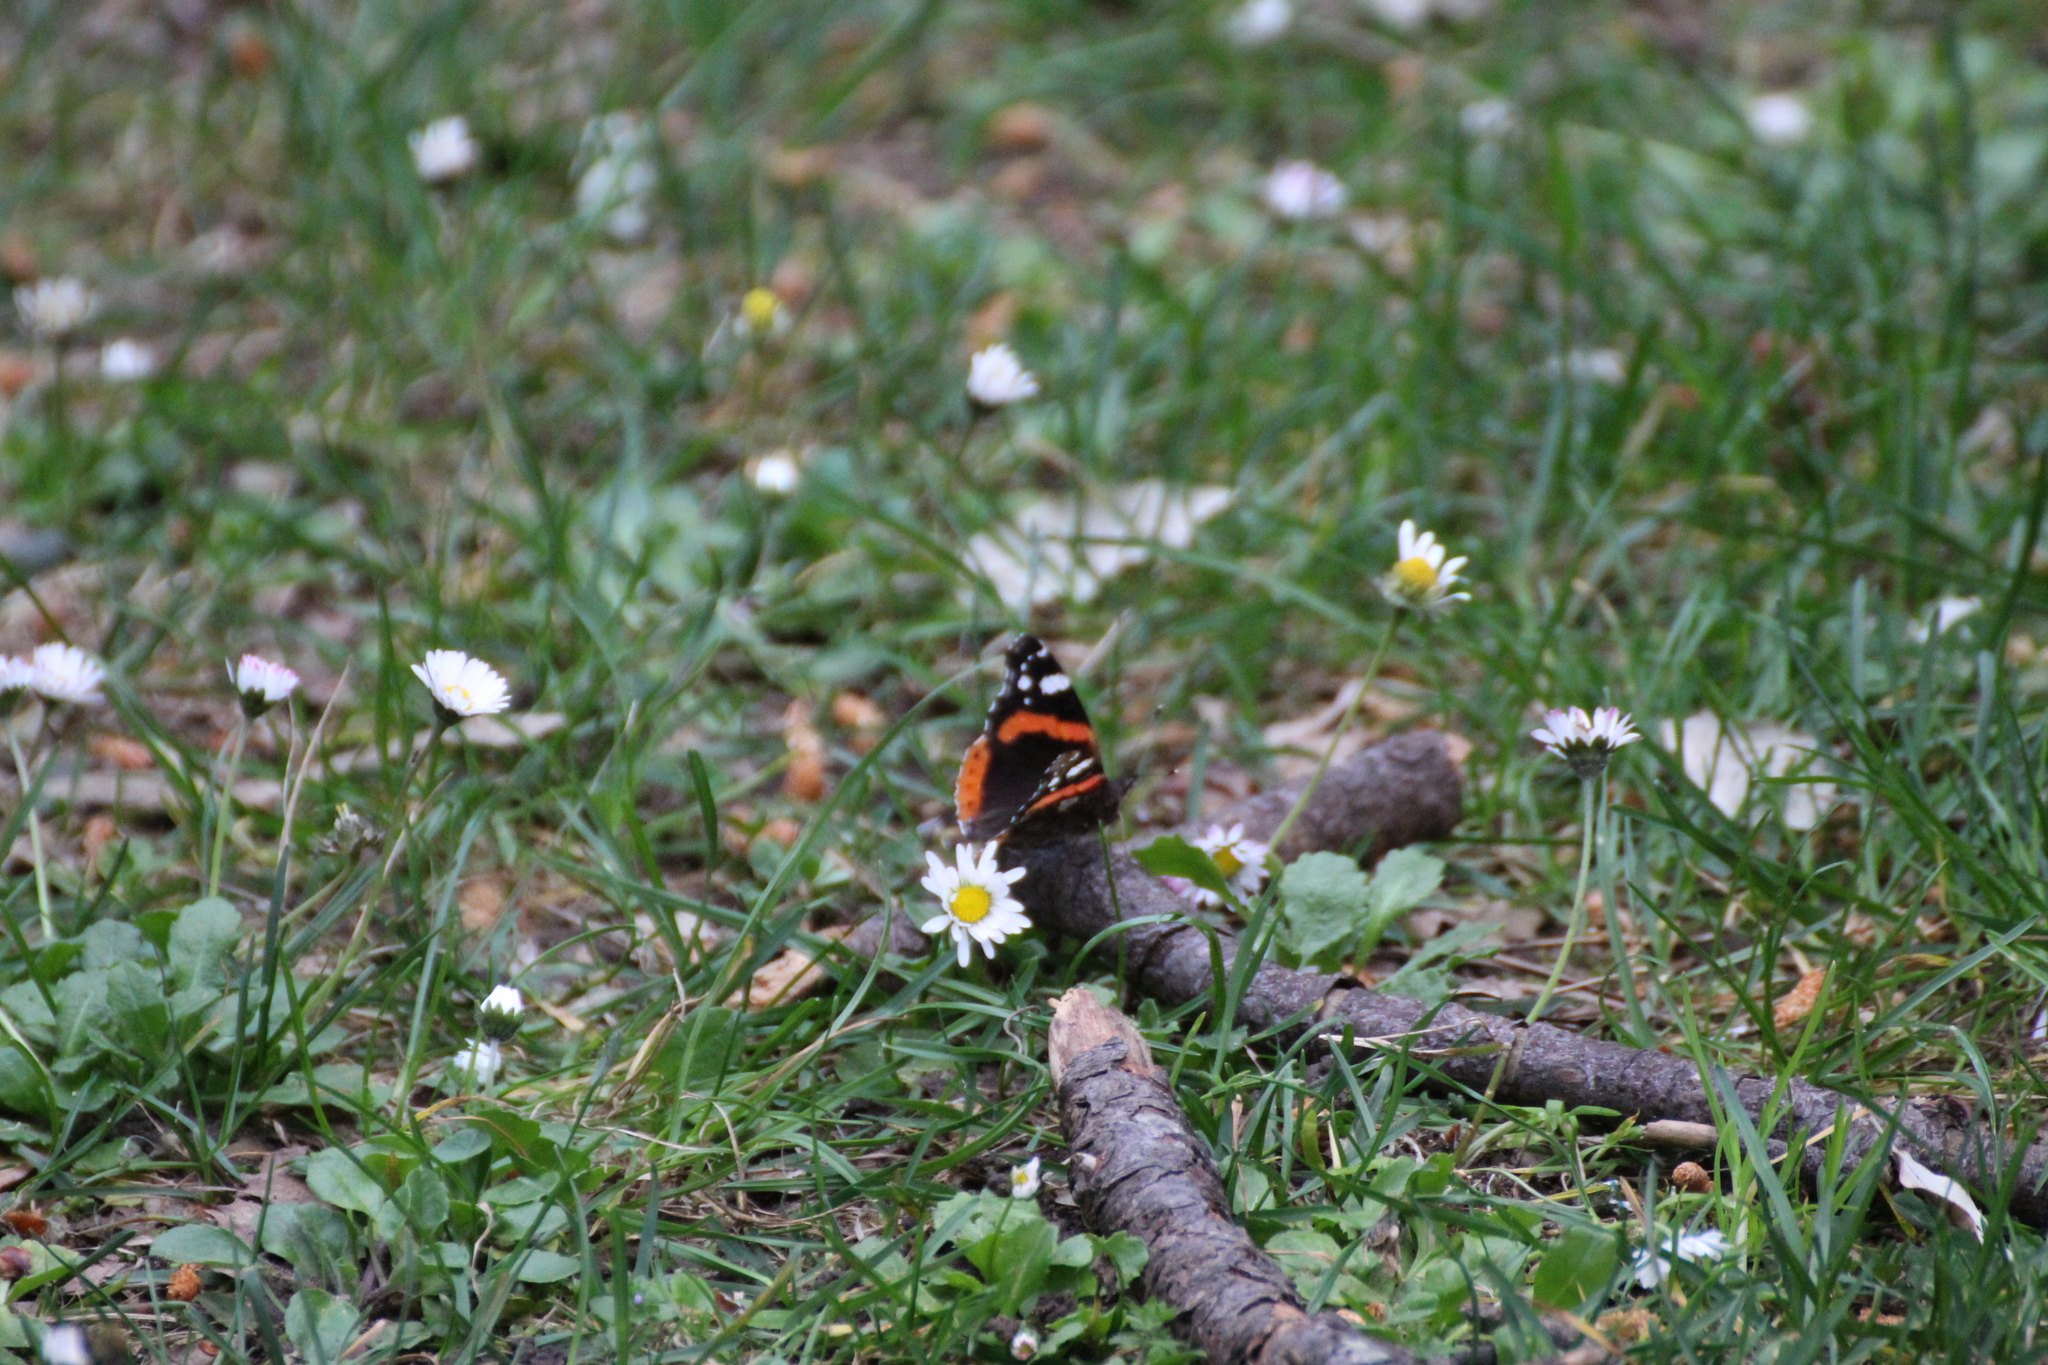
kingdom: Animalia
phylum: Arthropoda
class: Insecta
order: Lepidoptera
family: Nymphalidae
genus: Vanessa
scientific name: Vanessa atalanta
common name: Red admiral
